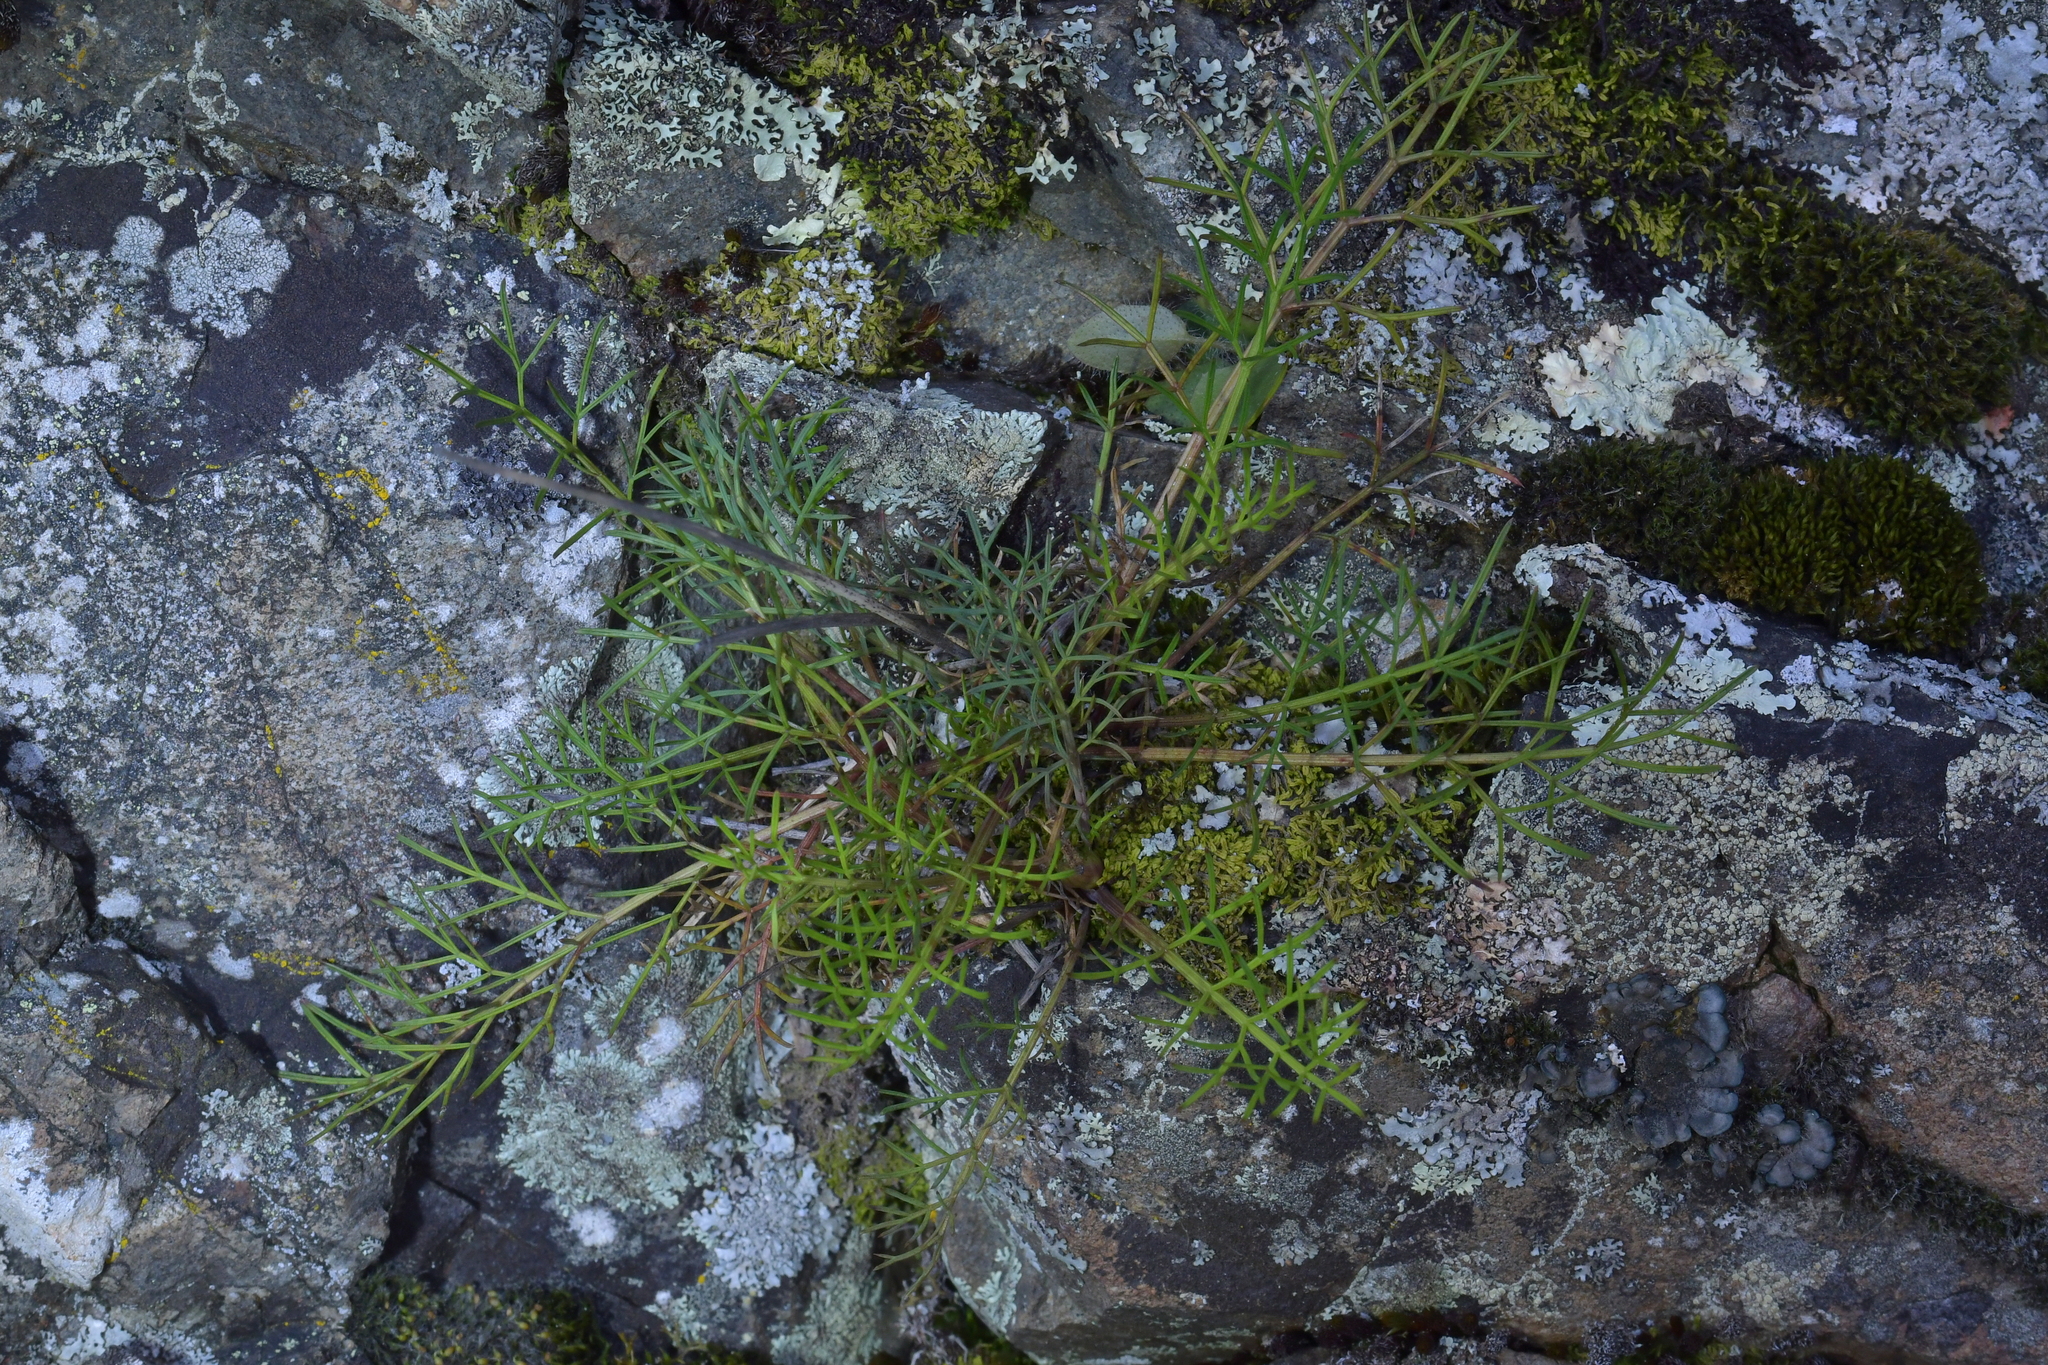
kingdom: Plantae
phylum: Tracheophyta
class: Magnoliopsida
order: Apiales
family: Apiaceae
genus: Anisotome
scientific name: Anisotome brevistylis
